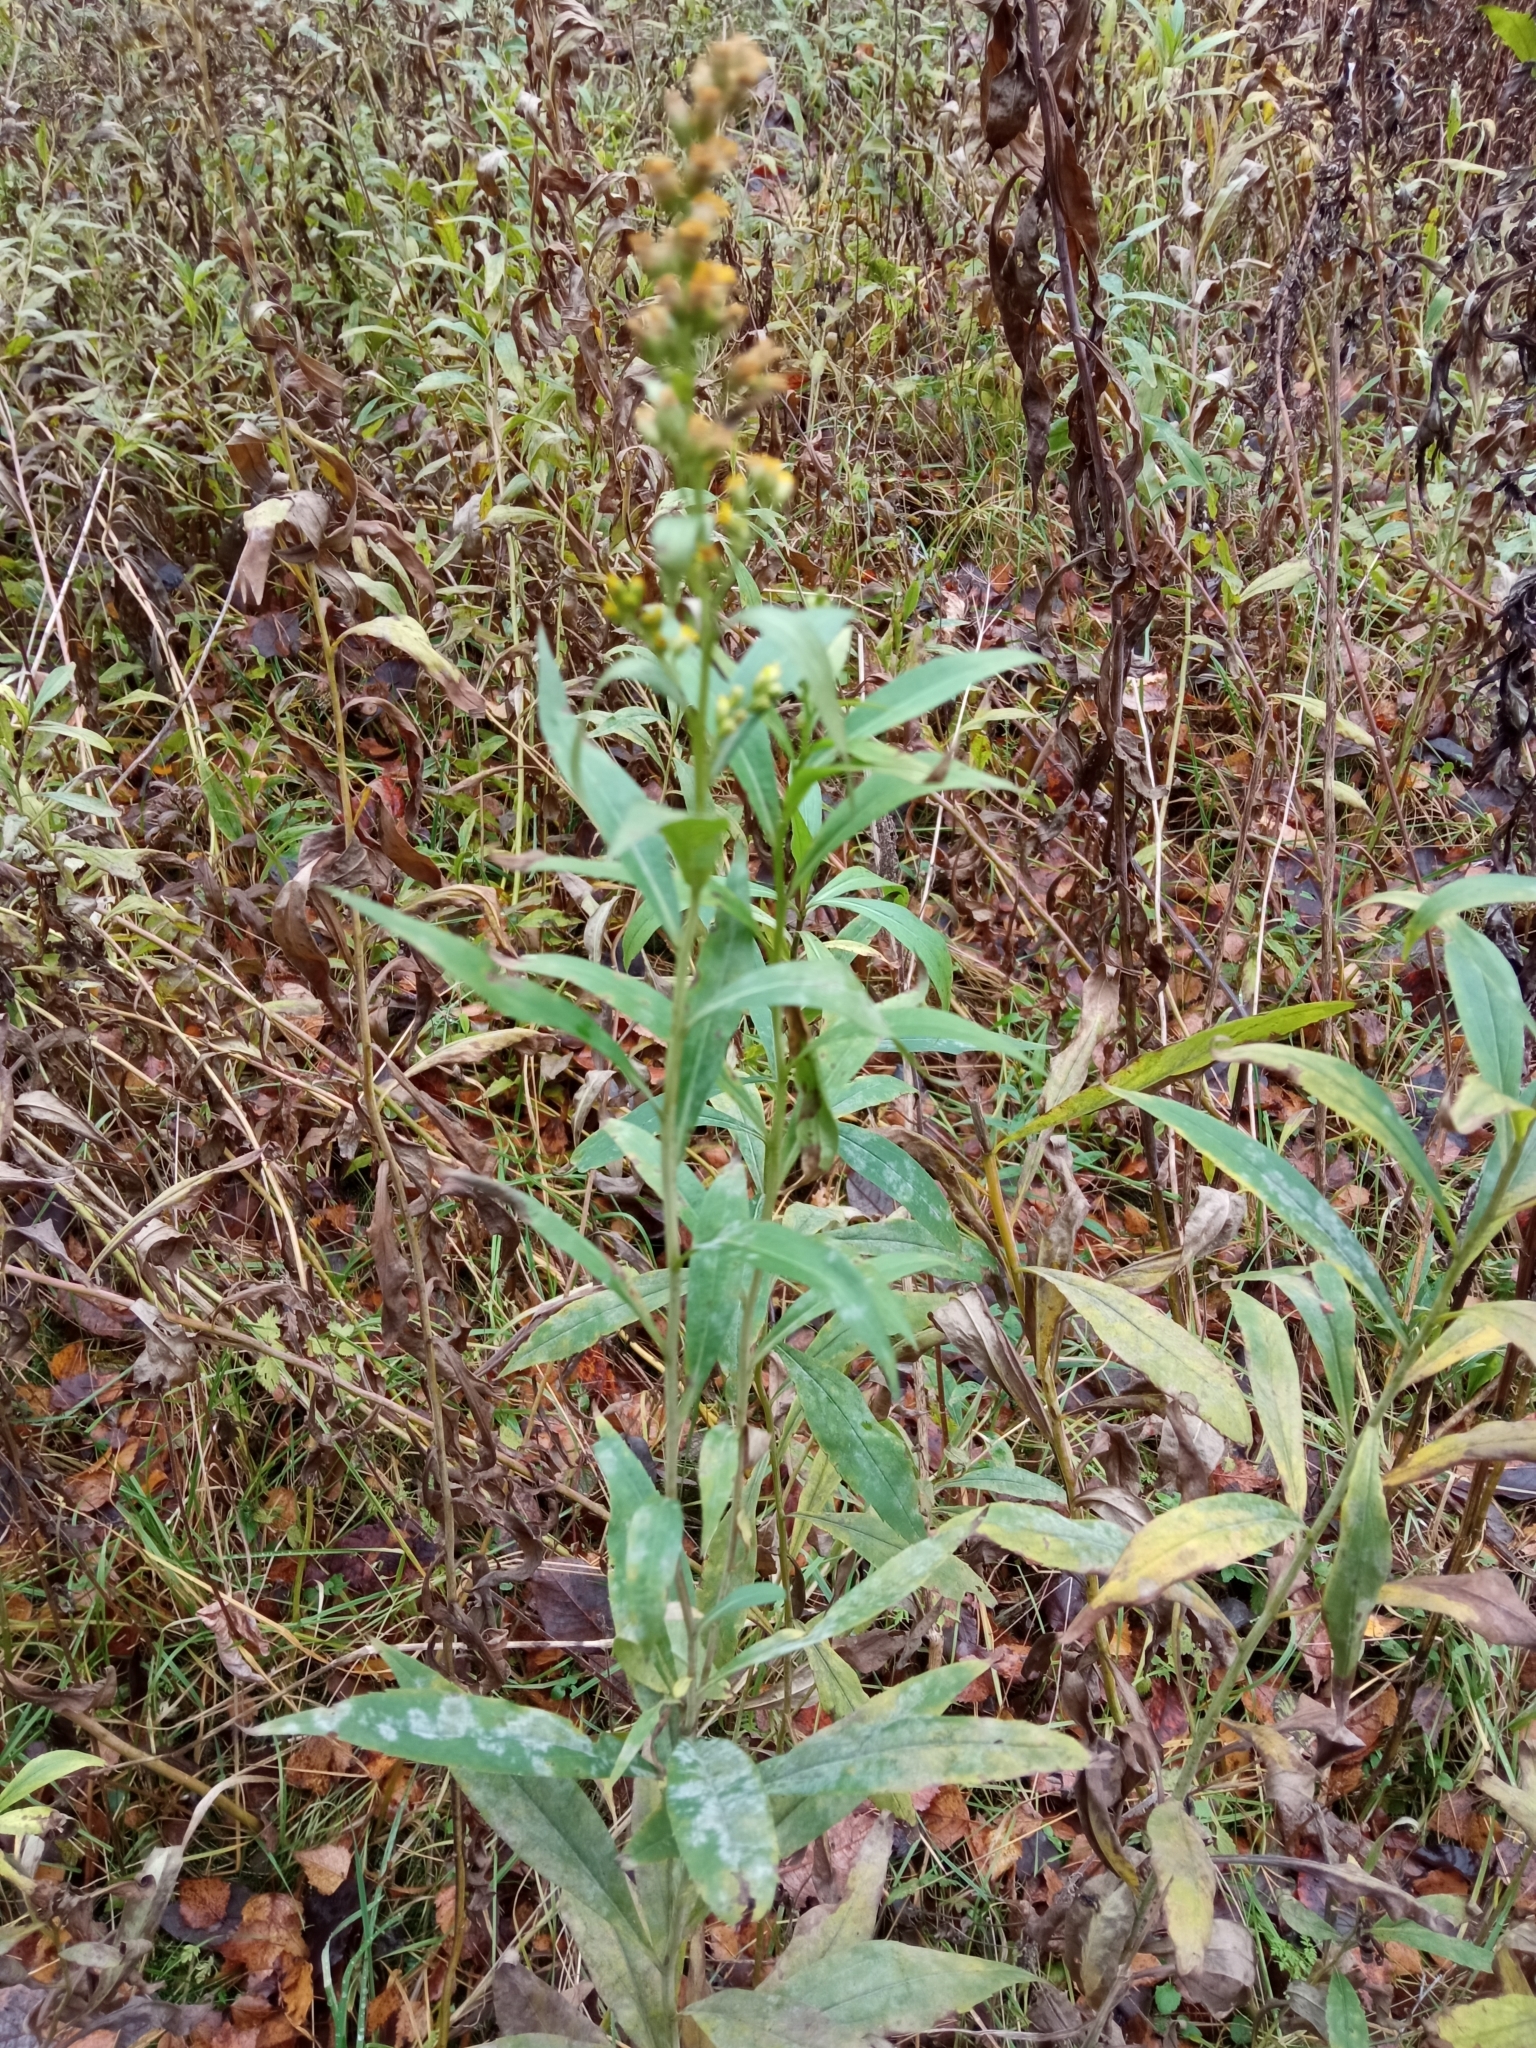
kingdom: Plantae
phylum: Tracheophyta
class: Magnoliopsida
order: Asterales
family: Asteraceae
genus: Solidago
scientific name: Solidago gigantea
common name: Giant goldenrod
